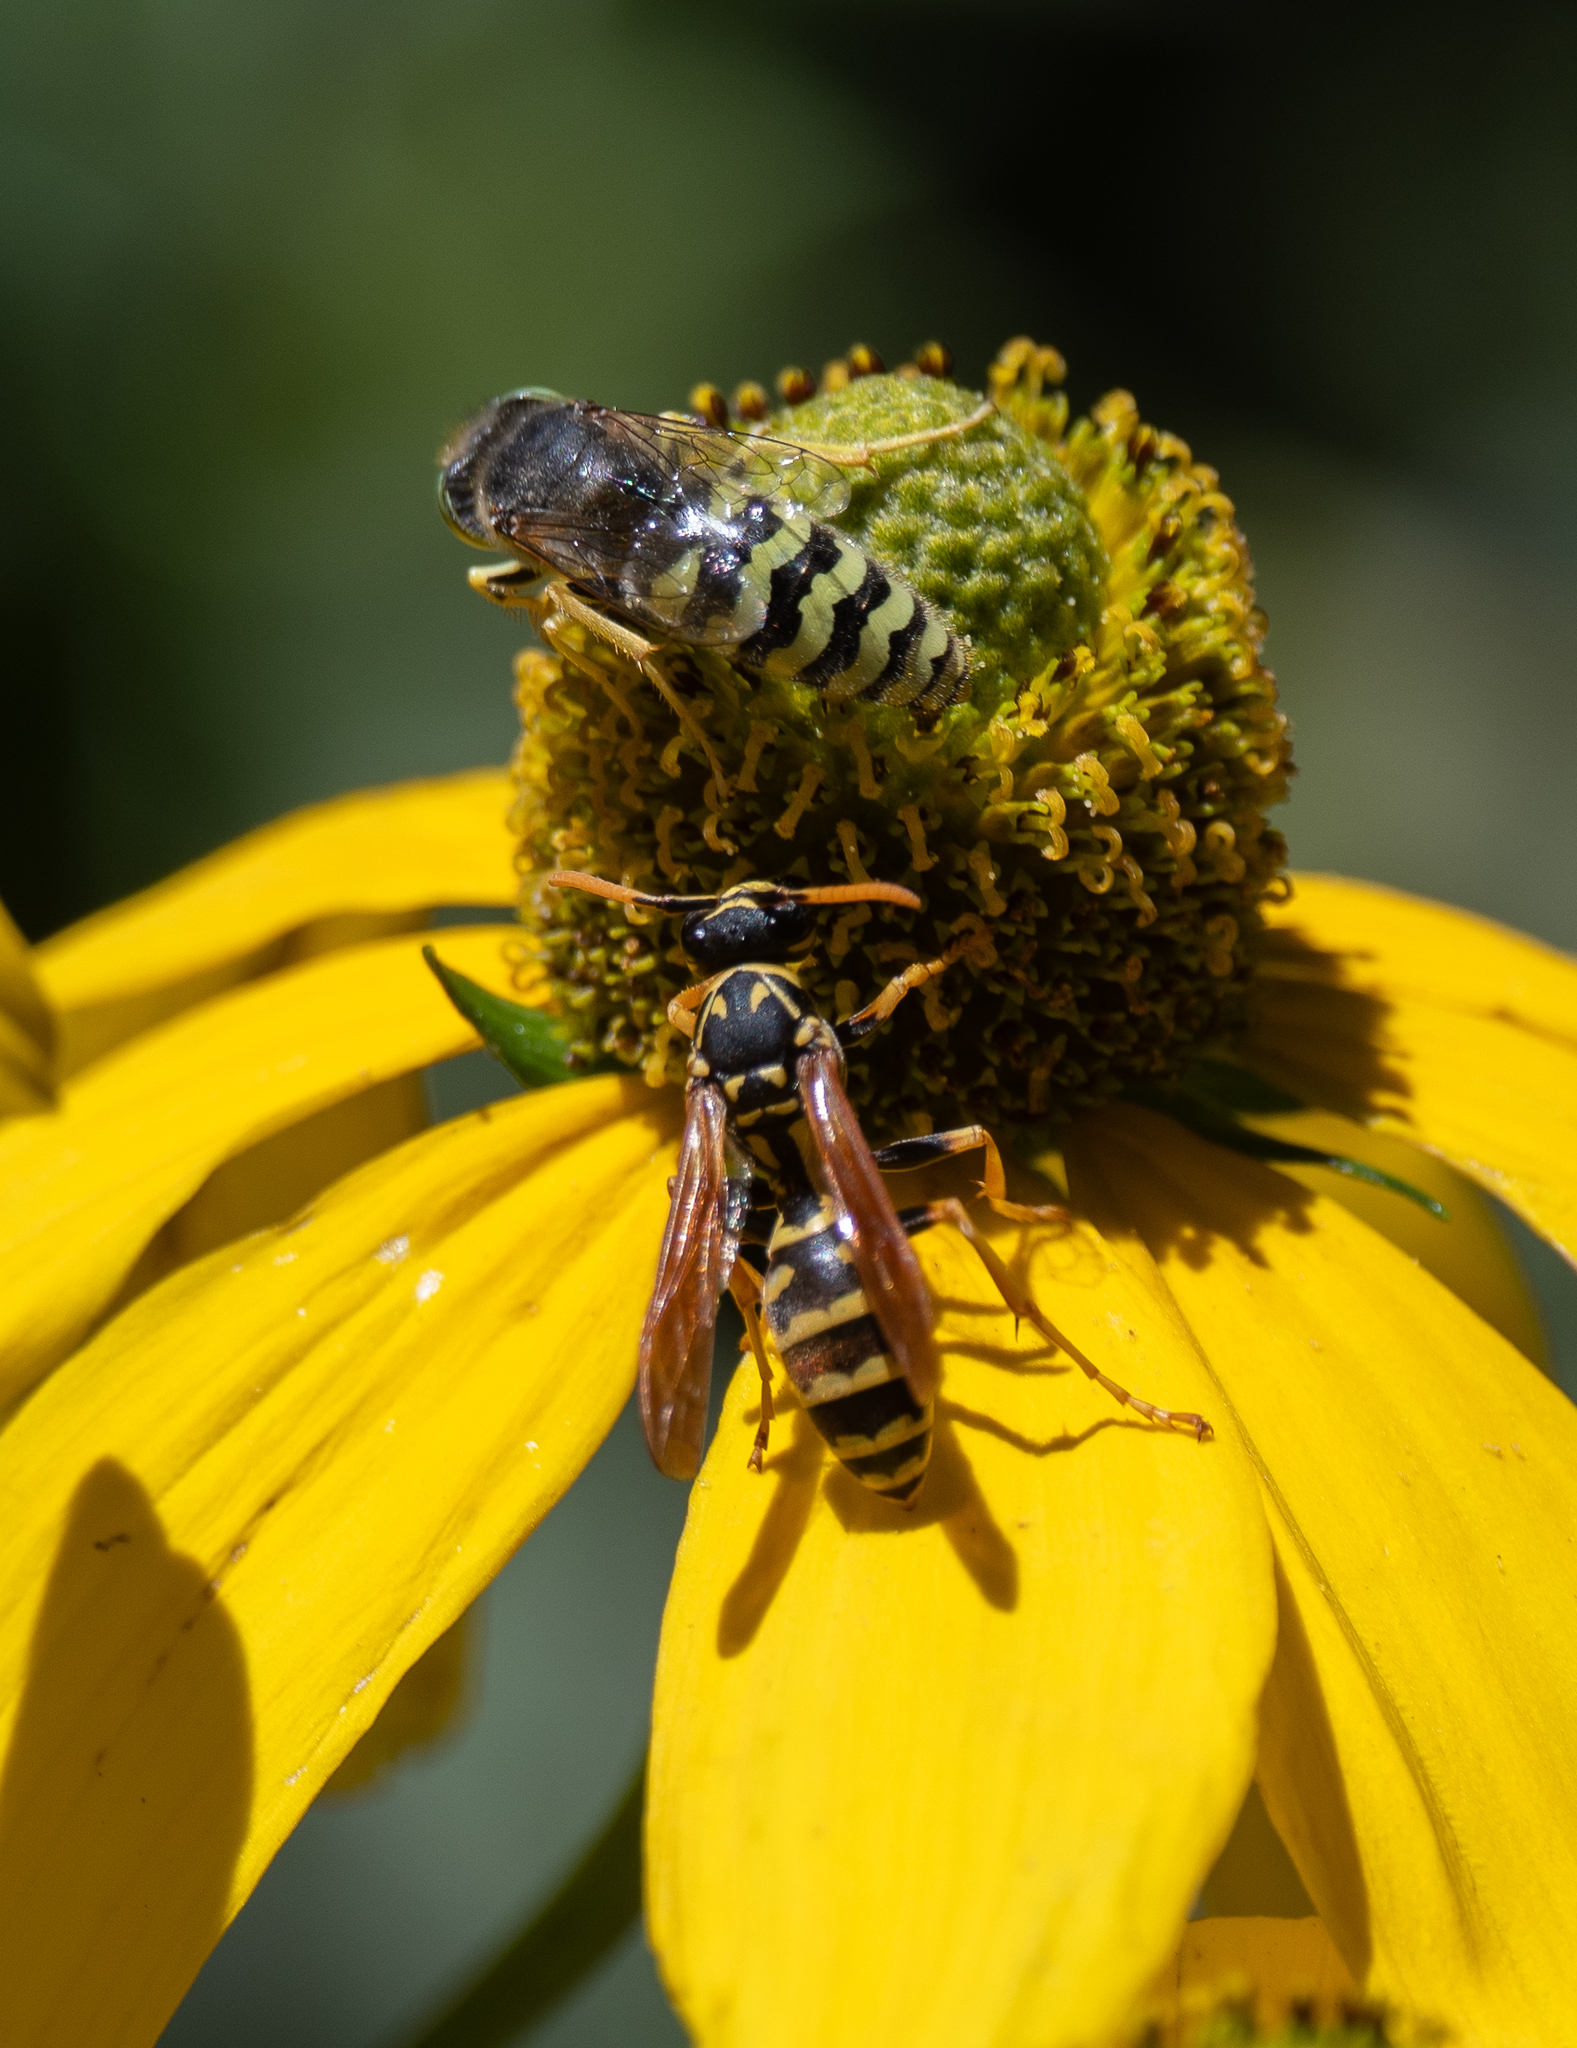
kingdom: Animalia
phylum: Arthropoda
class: Insecta
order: Hymenoptera
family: Crabronidae
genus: Bembix
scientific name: Bembix americana
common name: American sand wasp
